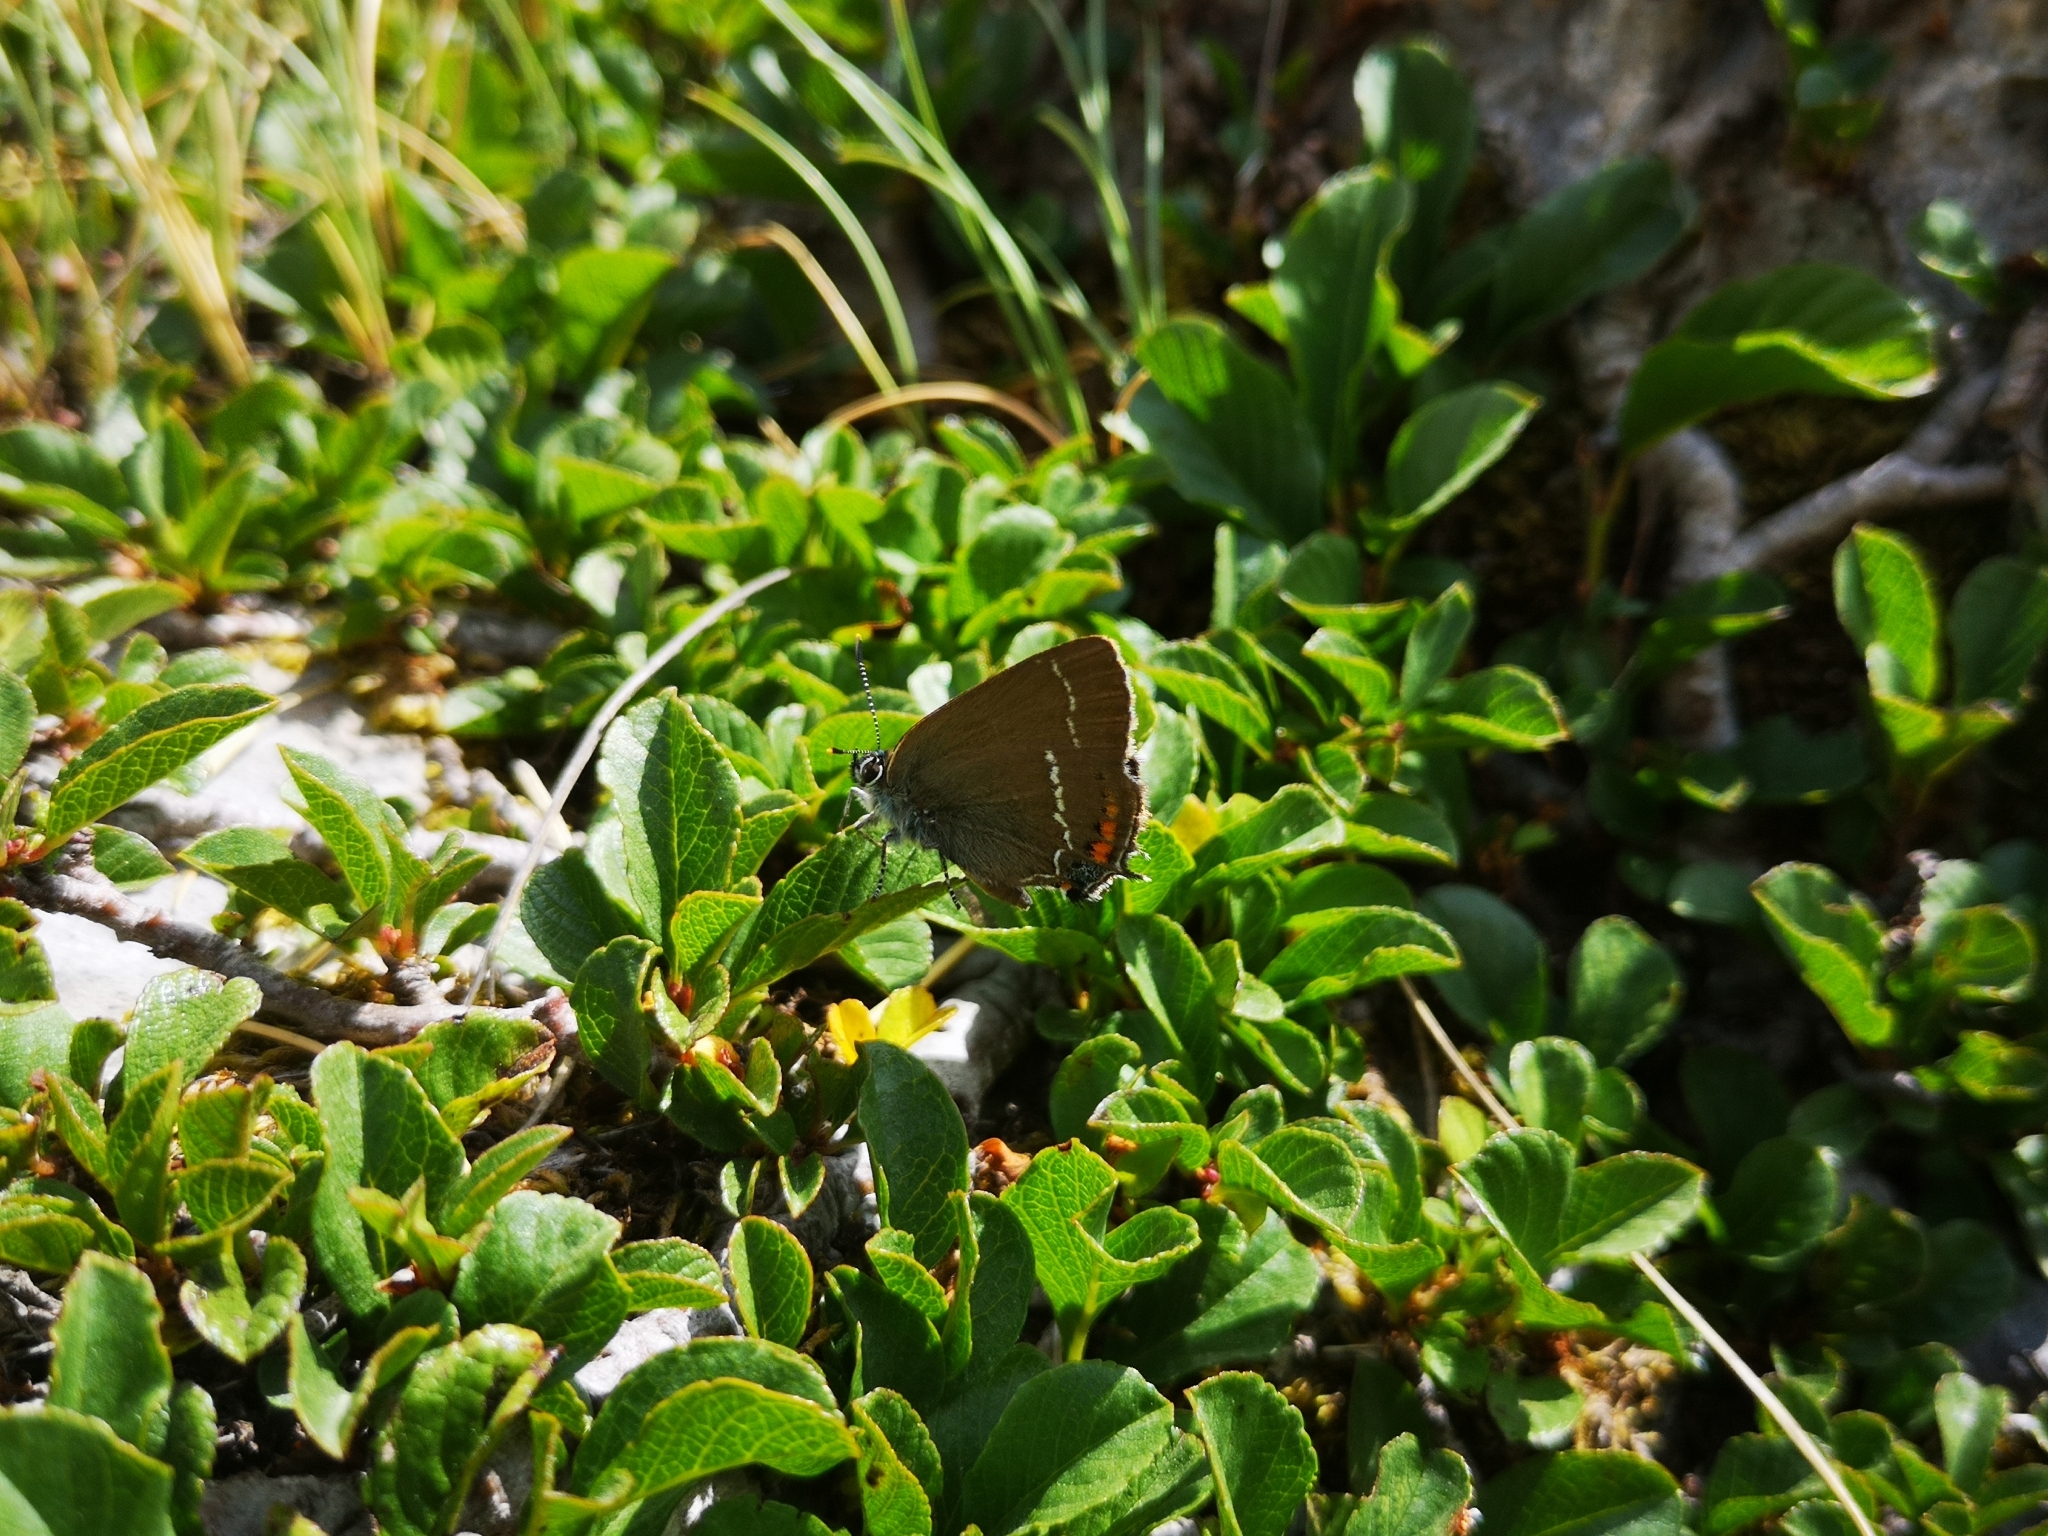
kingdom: Animalia
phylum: Arthropoda
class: Insecta
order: Lepidoptera
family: Lycaenidae
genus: Tuttiola
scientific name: Tuttiola spini
